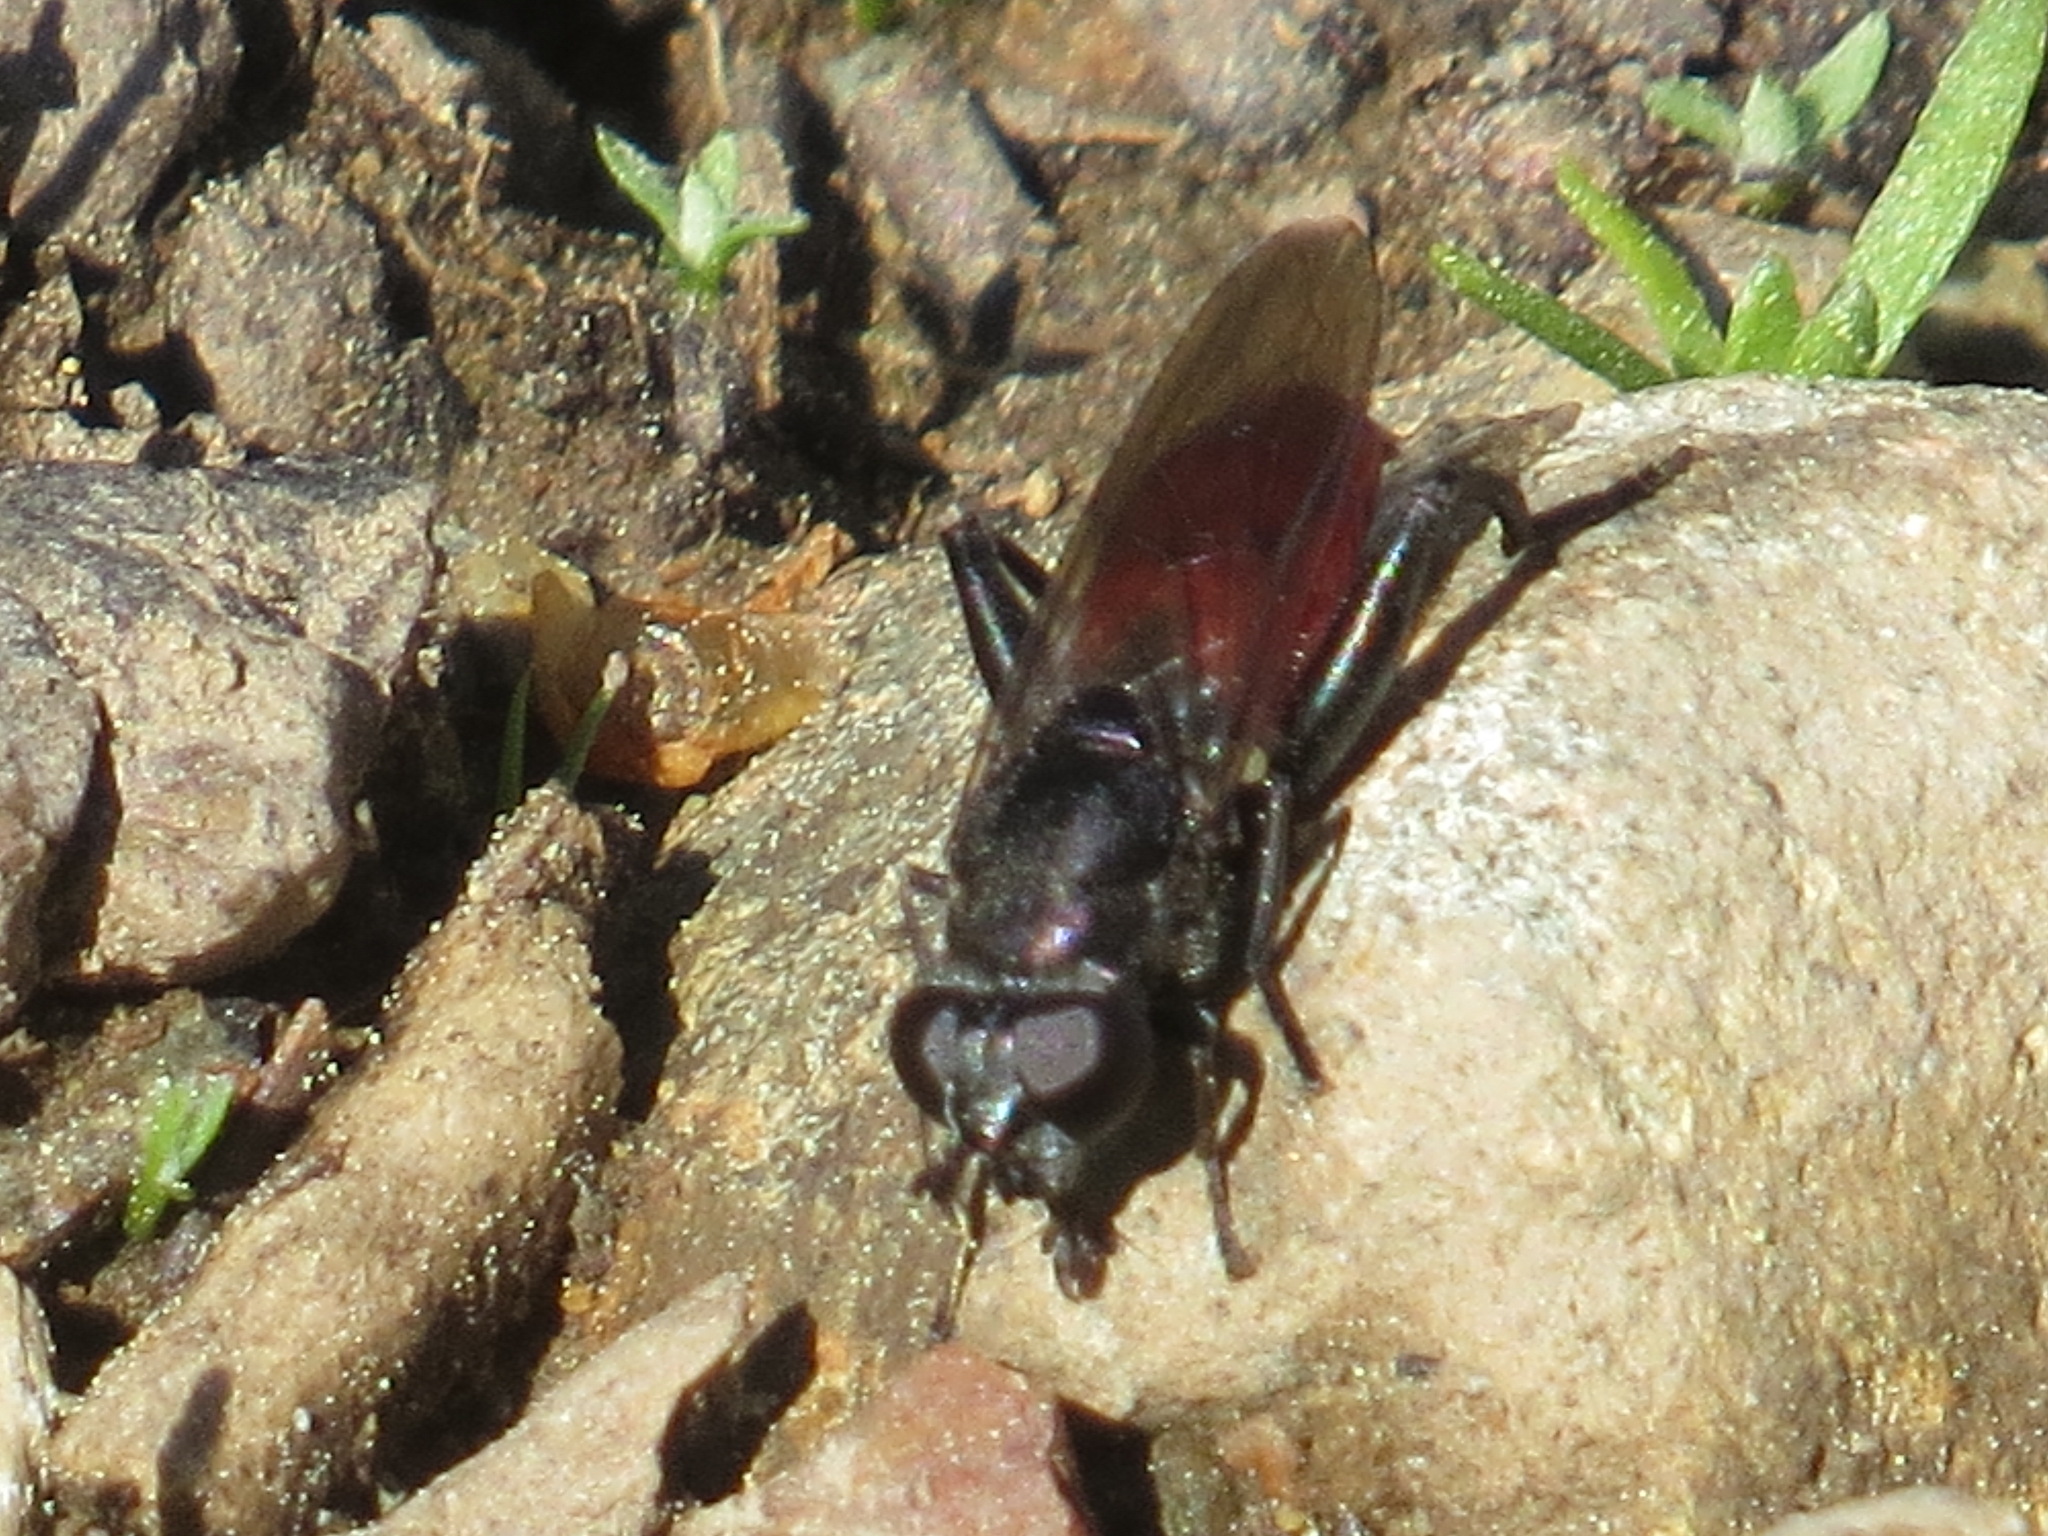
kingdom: Animalia
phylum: Arthropoda
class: Insecta
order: Diptera
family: Syrphidae
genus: Chalcosyrphus
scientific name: Chalcosyrphus piger
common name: Short-haired leafwalker
